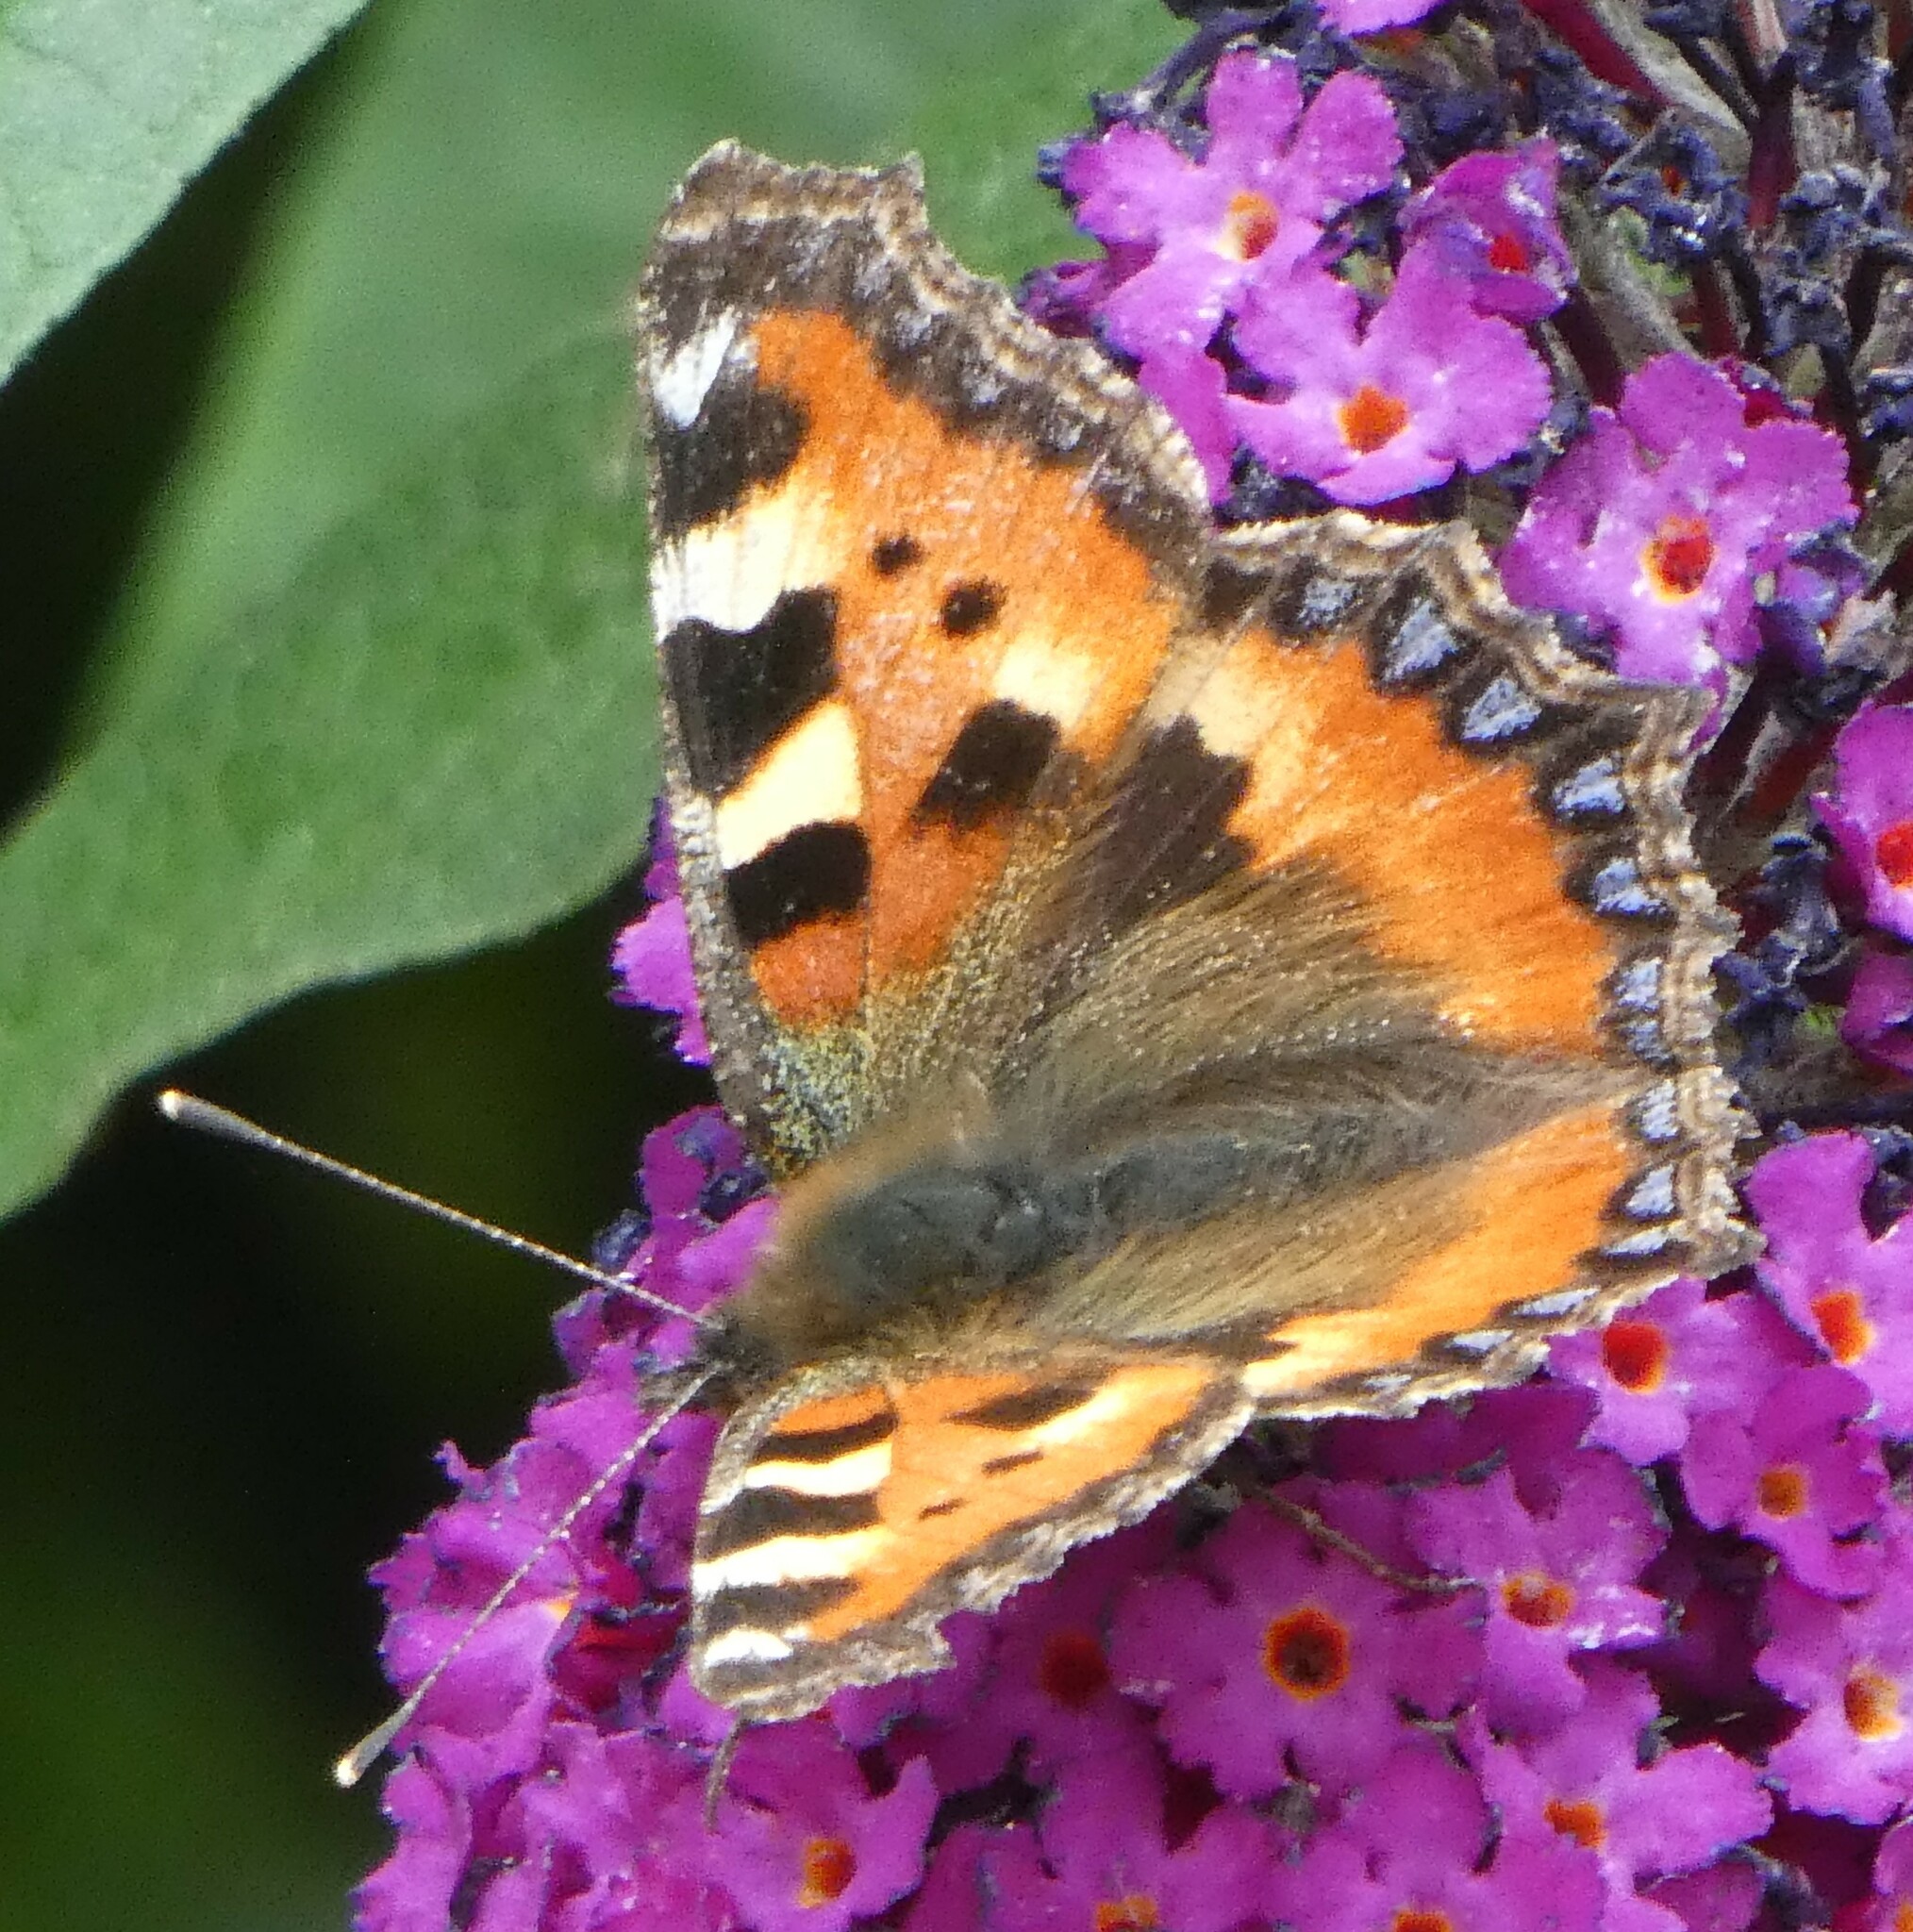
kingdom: Animalia
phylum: Arthropoda
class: Insecta
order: Lepidoptera
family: Nymphalidae
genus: Aglais
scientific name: Aglais urticae
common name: Small tortoiseshell
